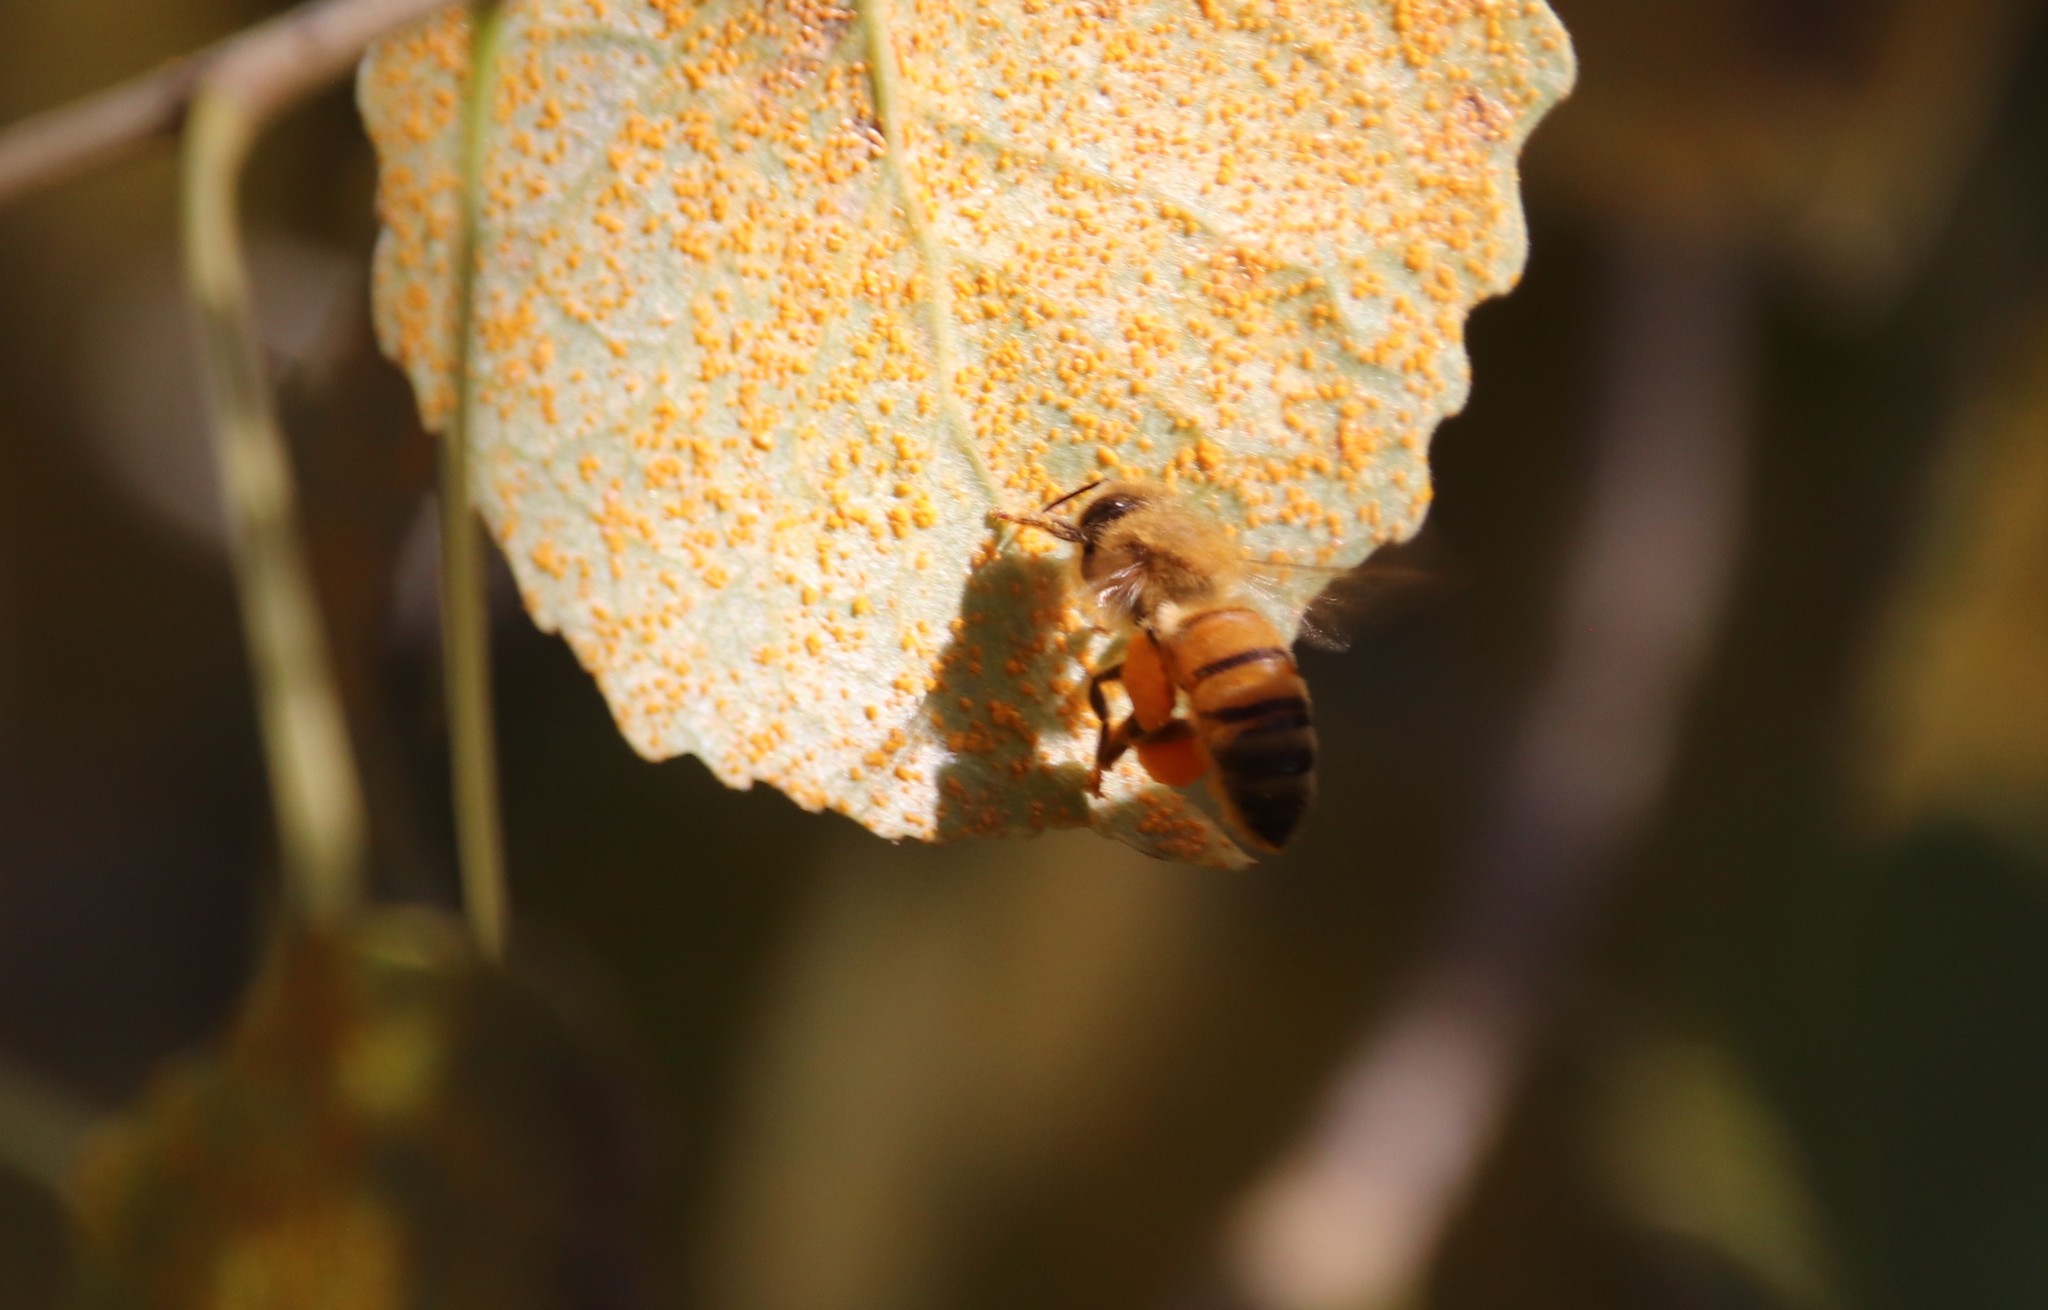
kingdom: Animalia
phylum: Arthropoda
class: Insecta
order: Hymenoptera
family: Apidae
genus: Apis
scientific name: Apis mellifera
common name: Honey bee
